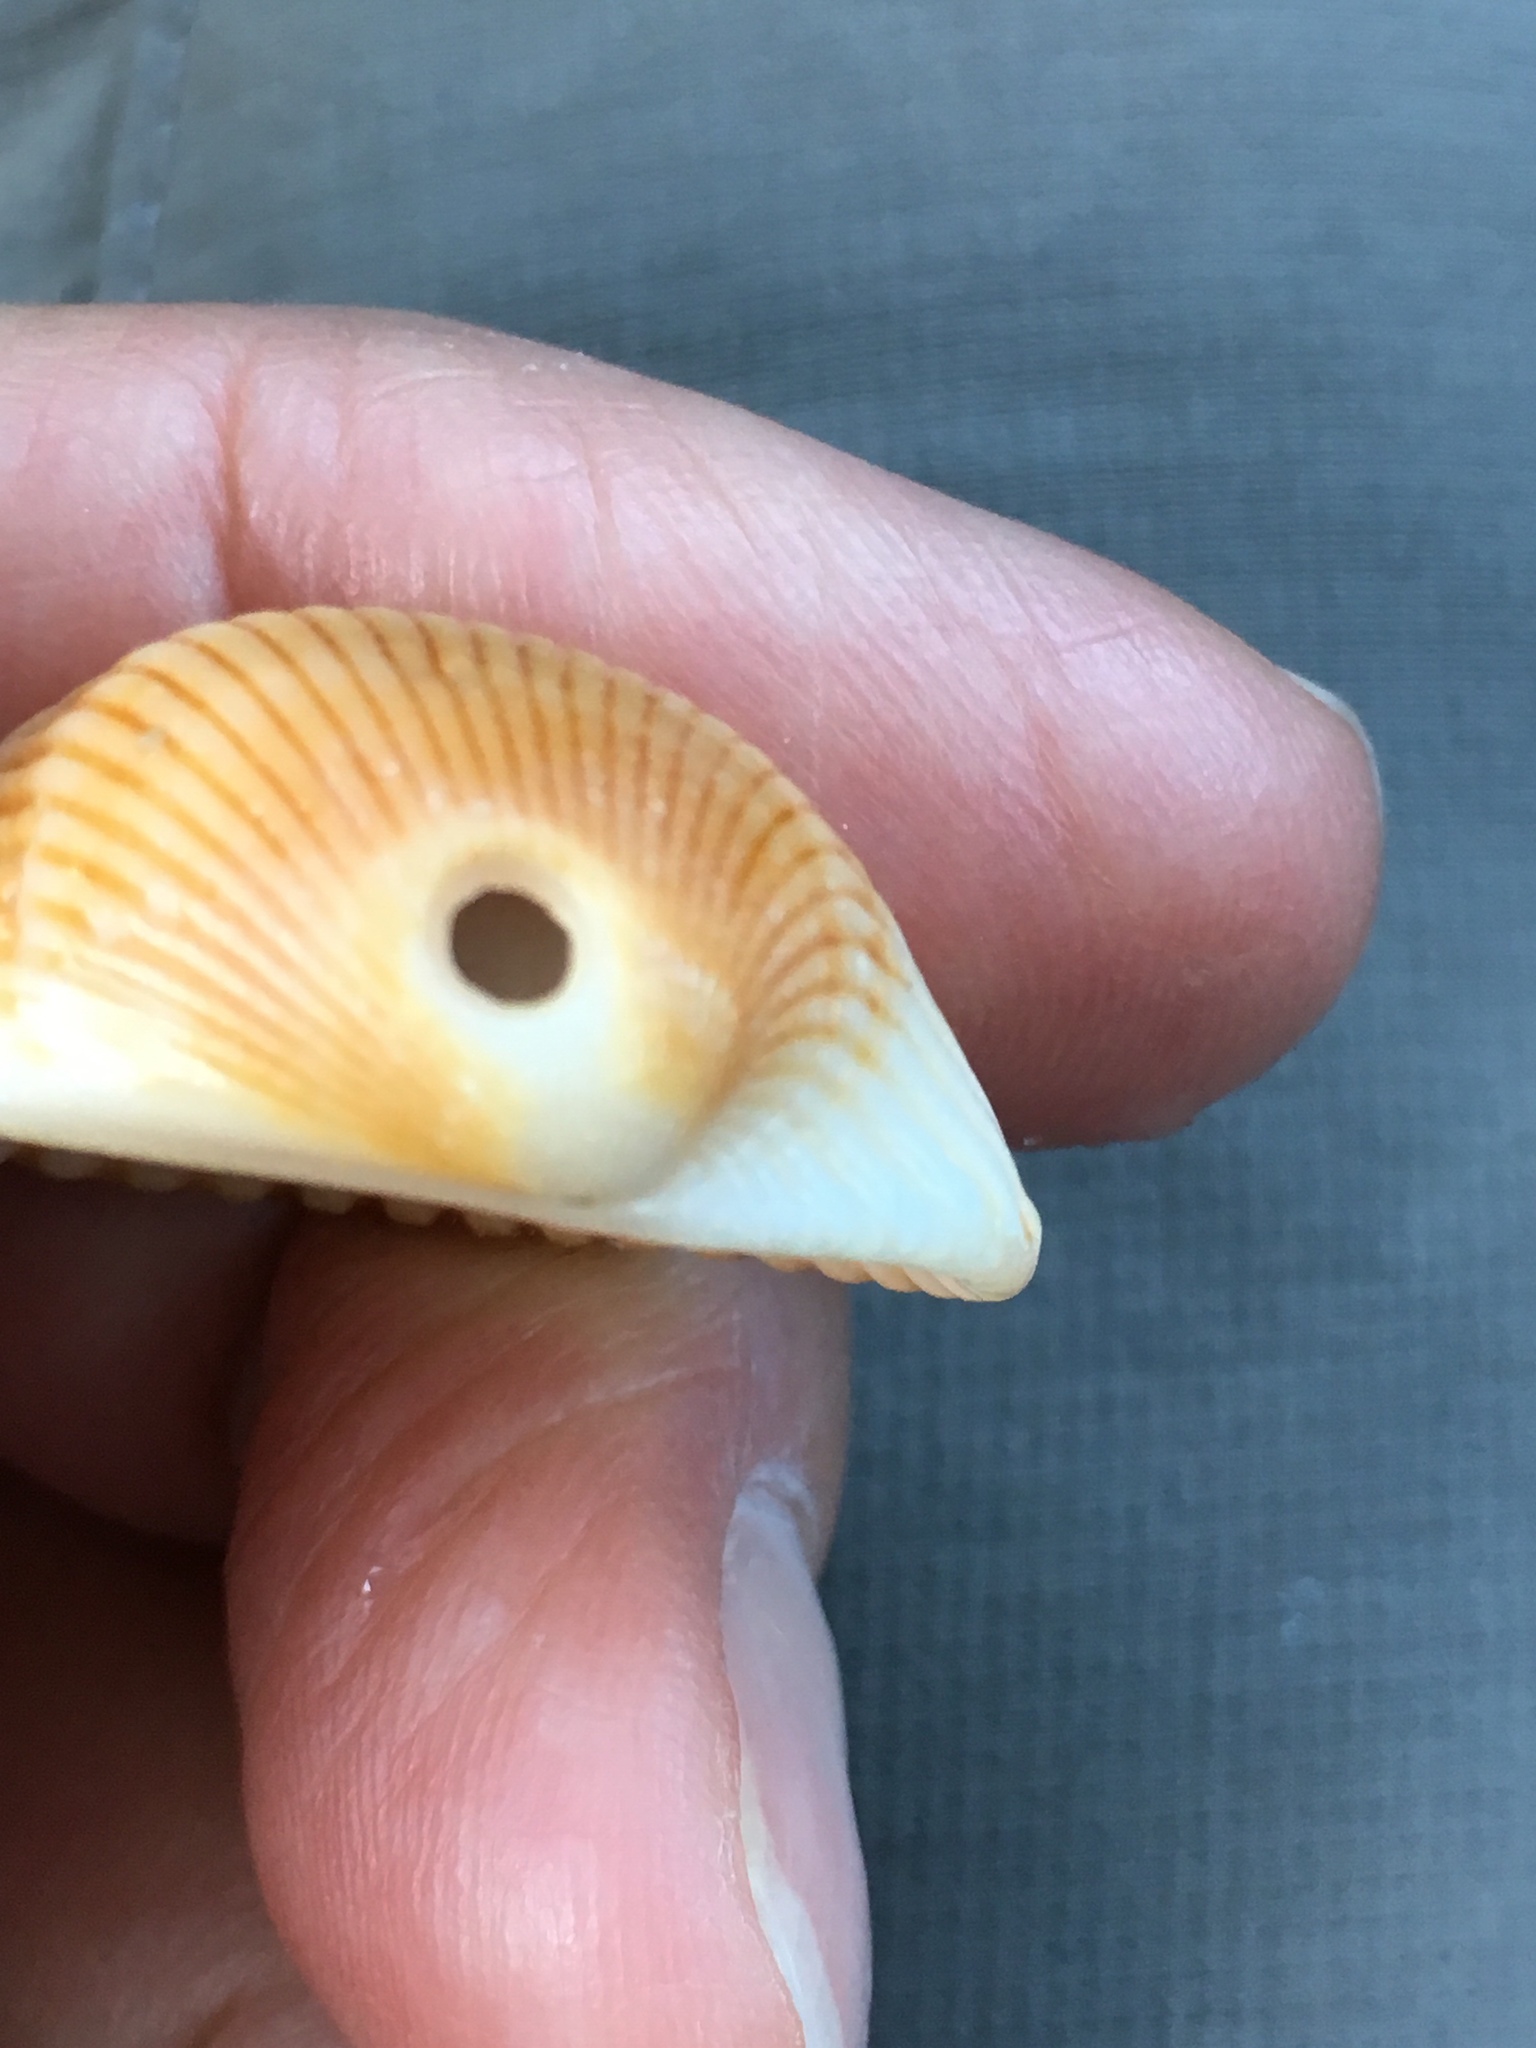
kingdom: Animalia
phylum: Mollusca
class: Gastropoda
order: Littorinimorpha
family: Naticidae
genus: Neverita
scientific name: Neverita duplicata
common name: Lobed moonsnail
